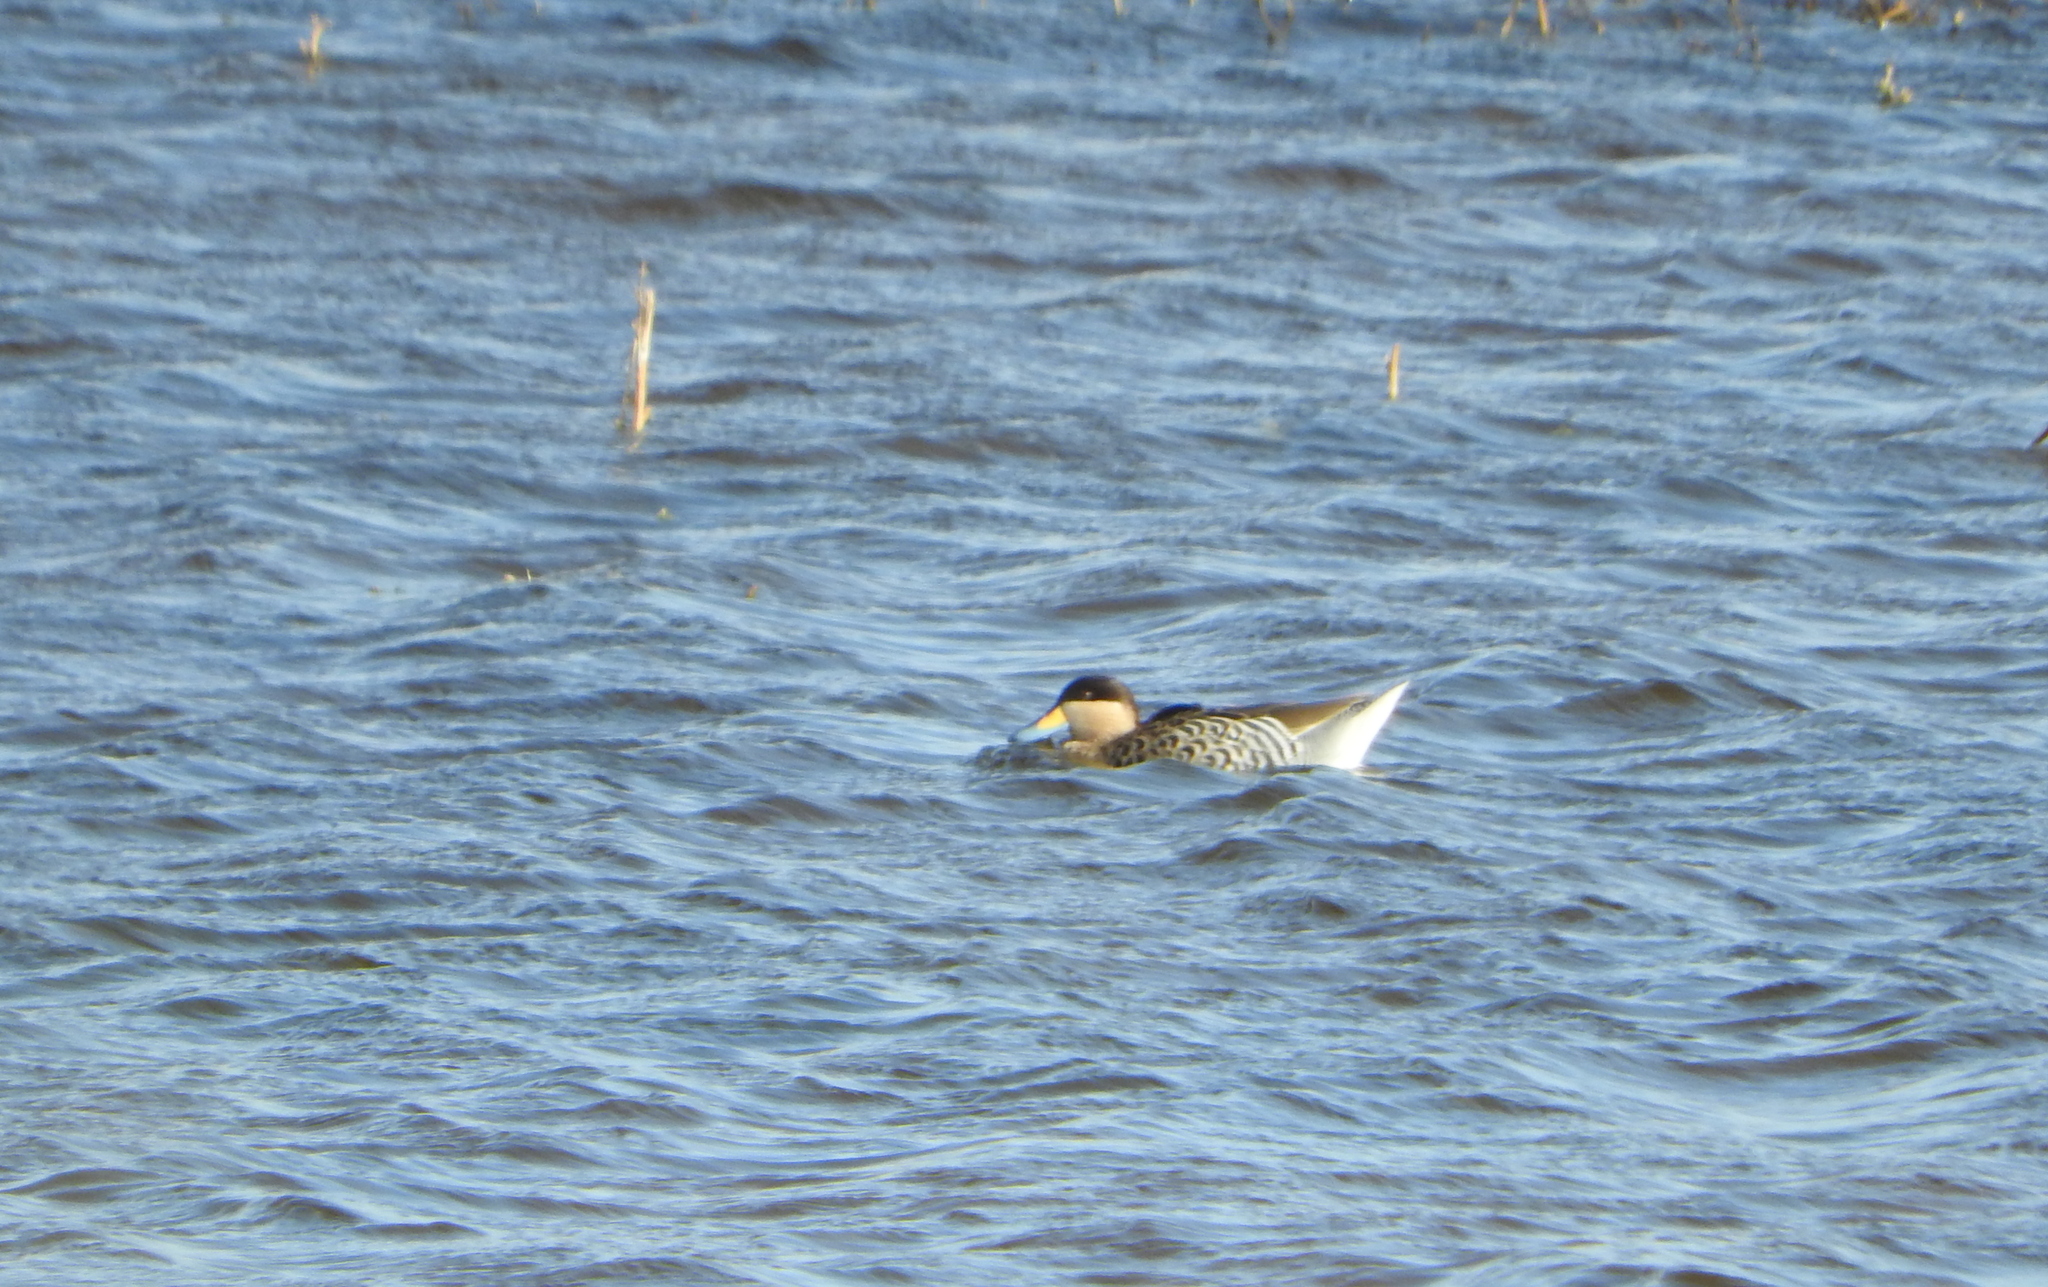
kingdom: Animalia
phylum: Chordata
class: Aves
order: Anseriformes
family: Anatidae
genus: Spatula
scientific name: Spatula versicolor
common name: Silver teal
